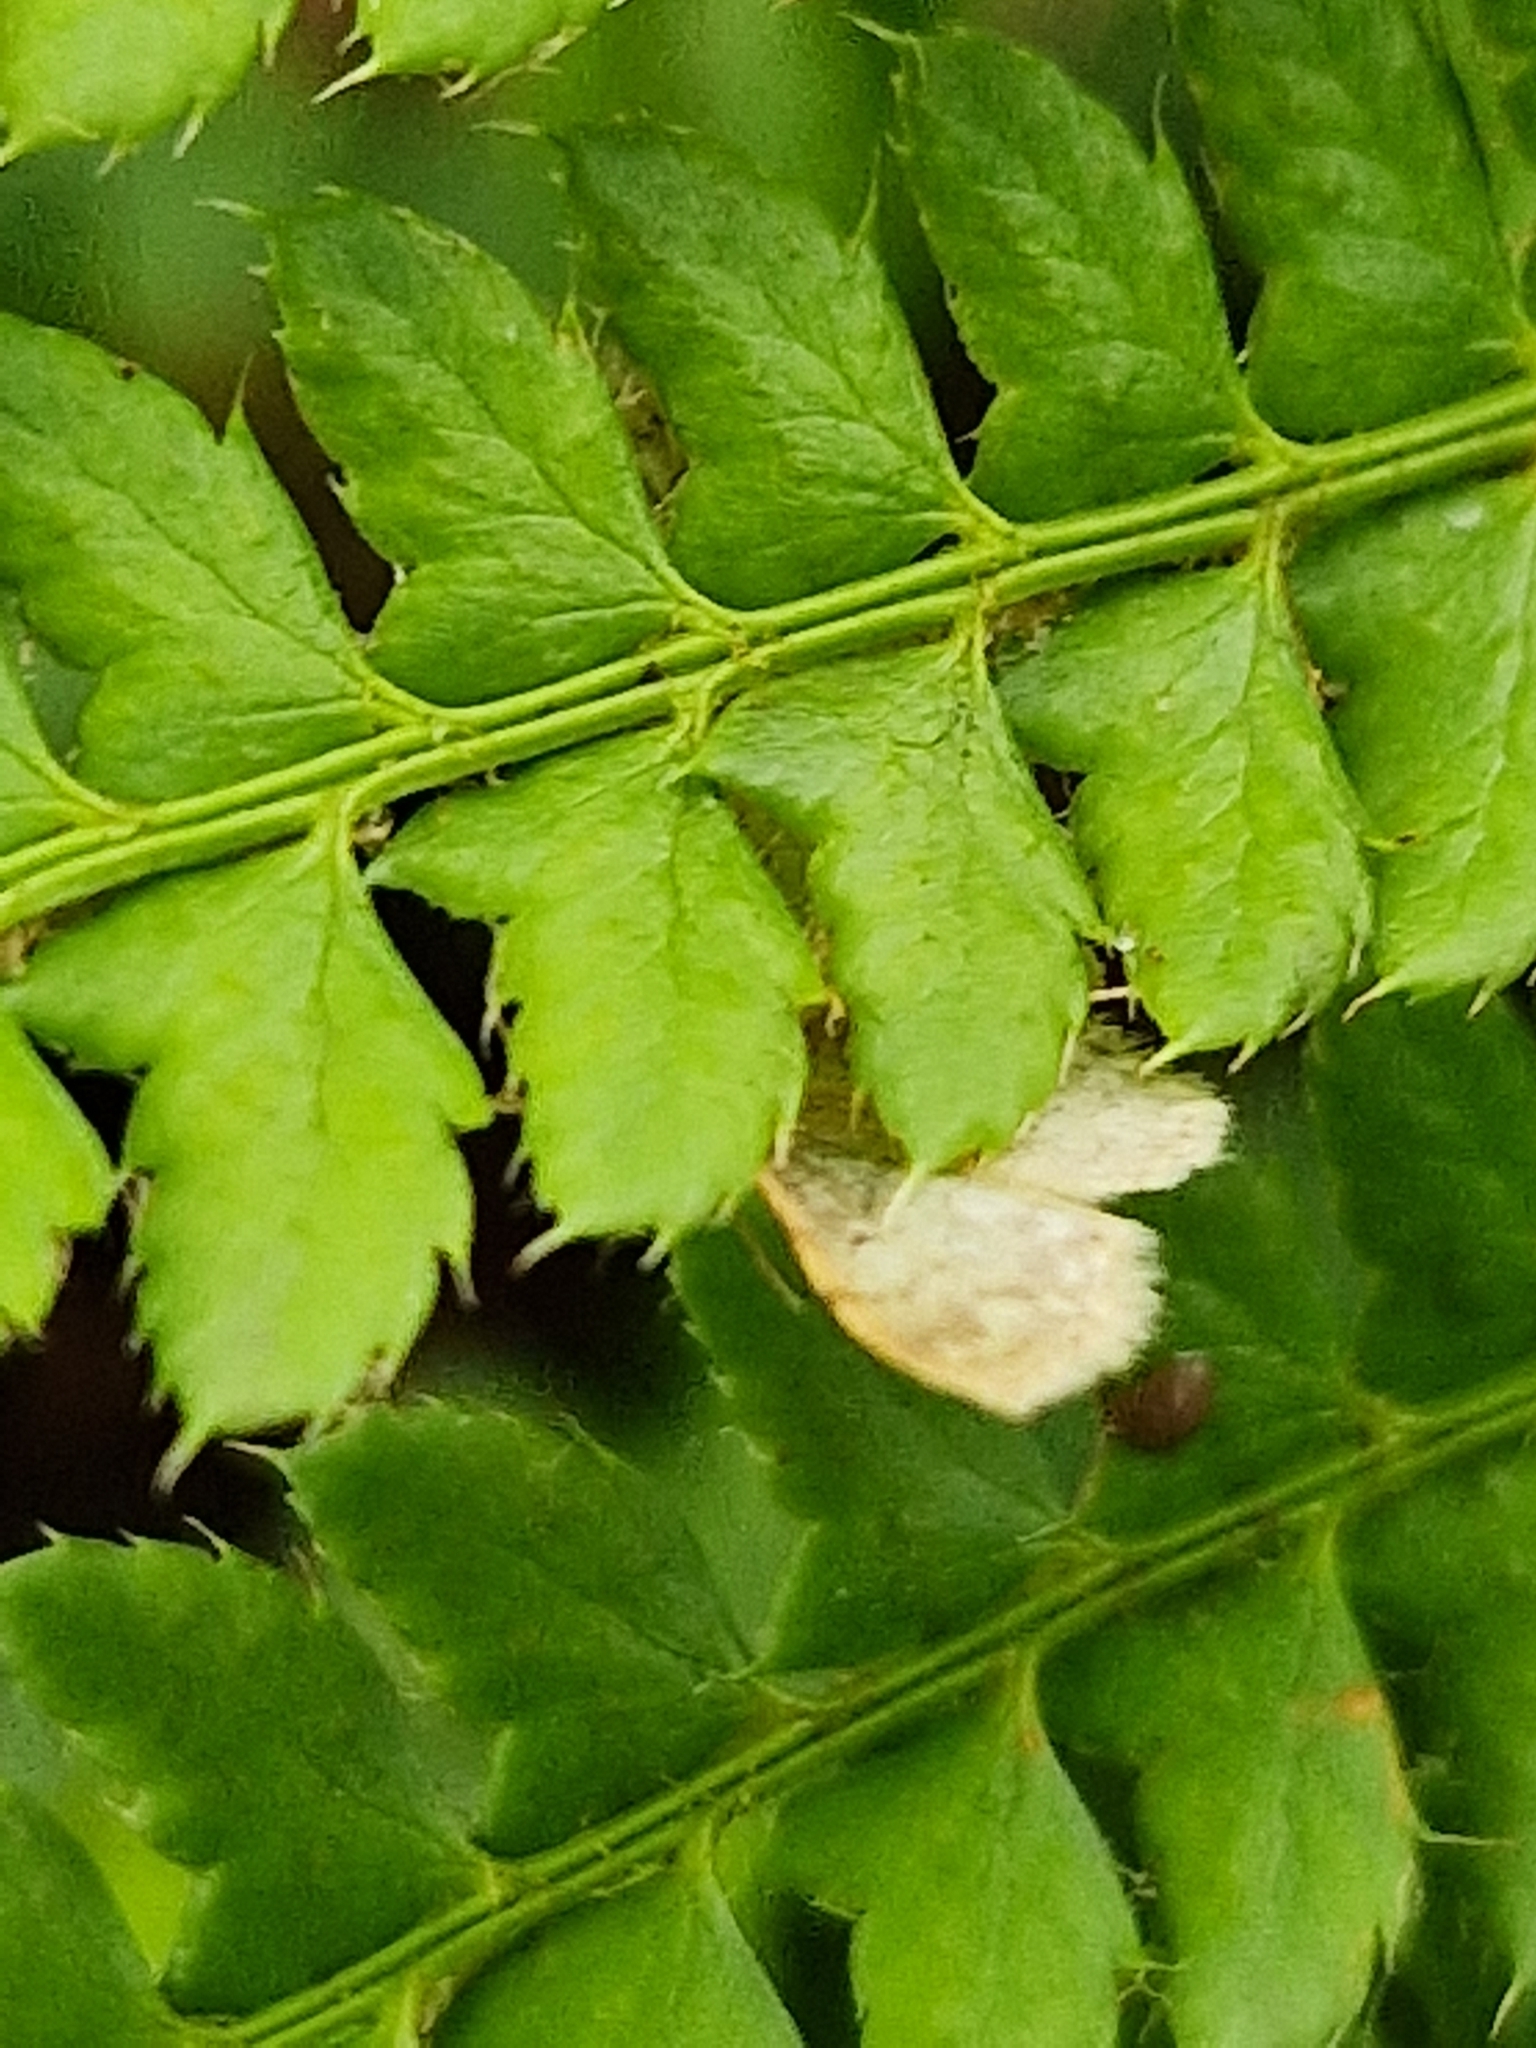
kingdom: Animalia
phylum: Arthropoda
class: Insecta
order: Lepidoptera
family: Geometridae
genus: Idaea
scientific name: Idaea fuscovenosa
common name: Dwarf cream wave
